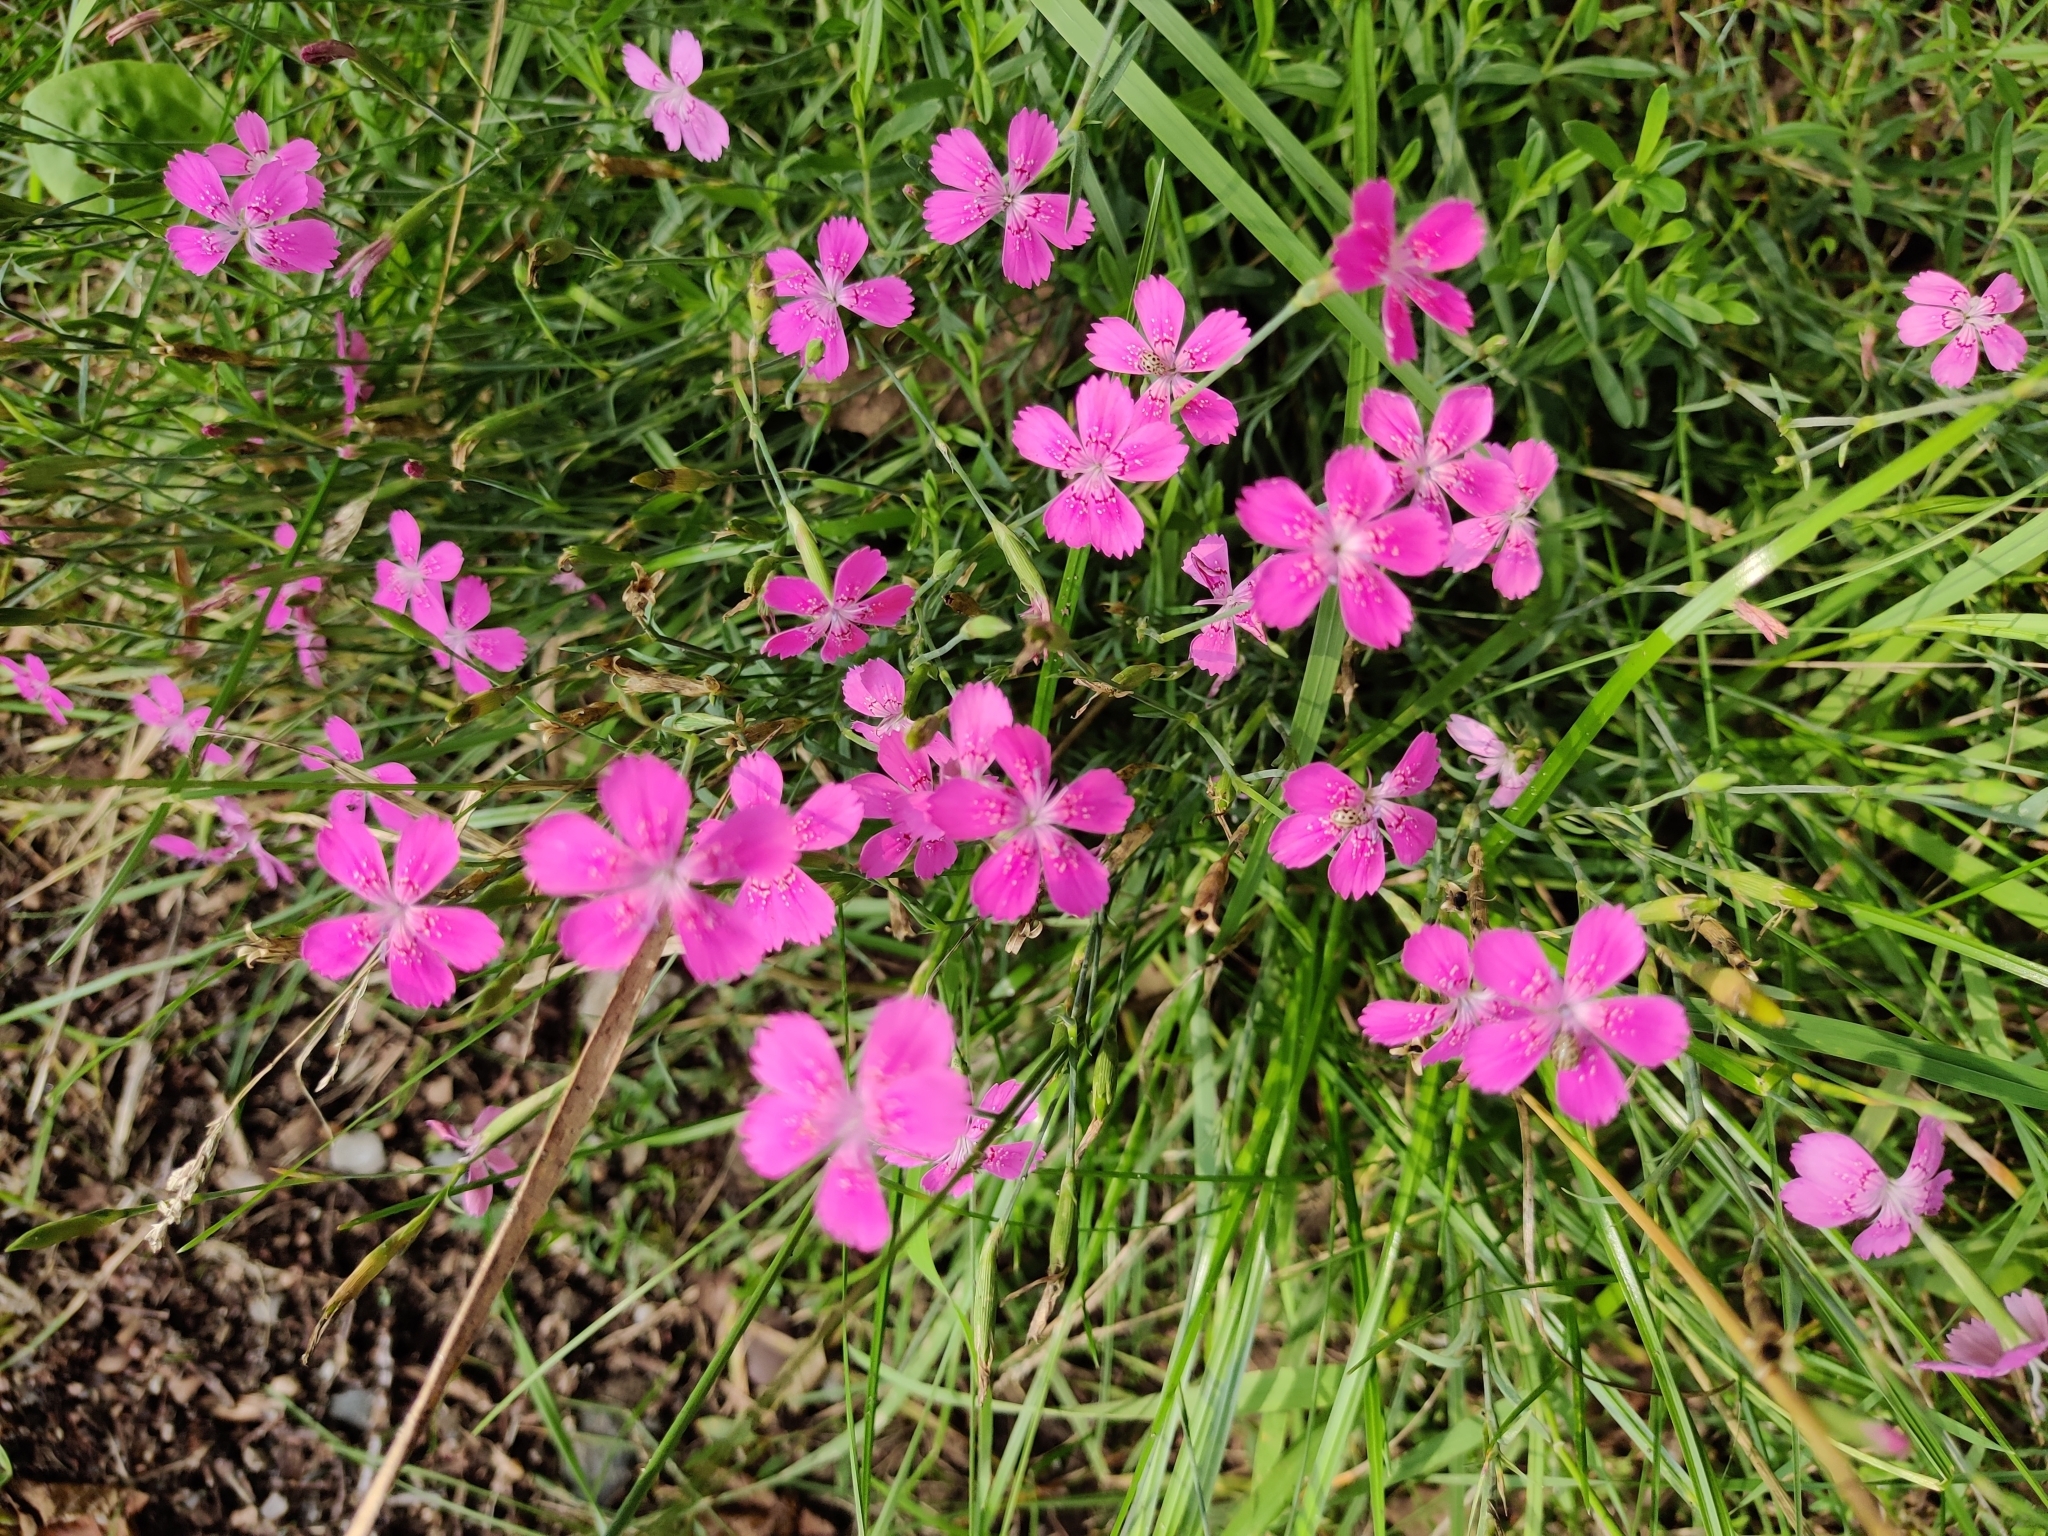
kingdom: Plantae
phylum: Tracheophyta
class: Magnoliopsida
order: Caryophyllales
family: Caryophyllaceae
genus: Dianthus
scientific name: Dianthus deltoides
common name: Maiden pink
